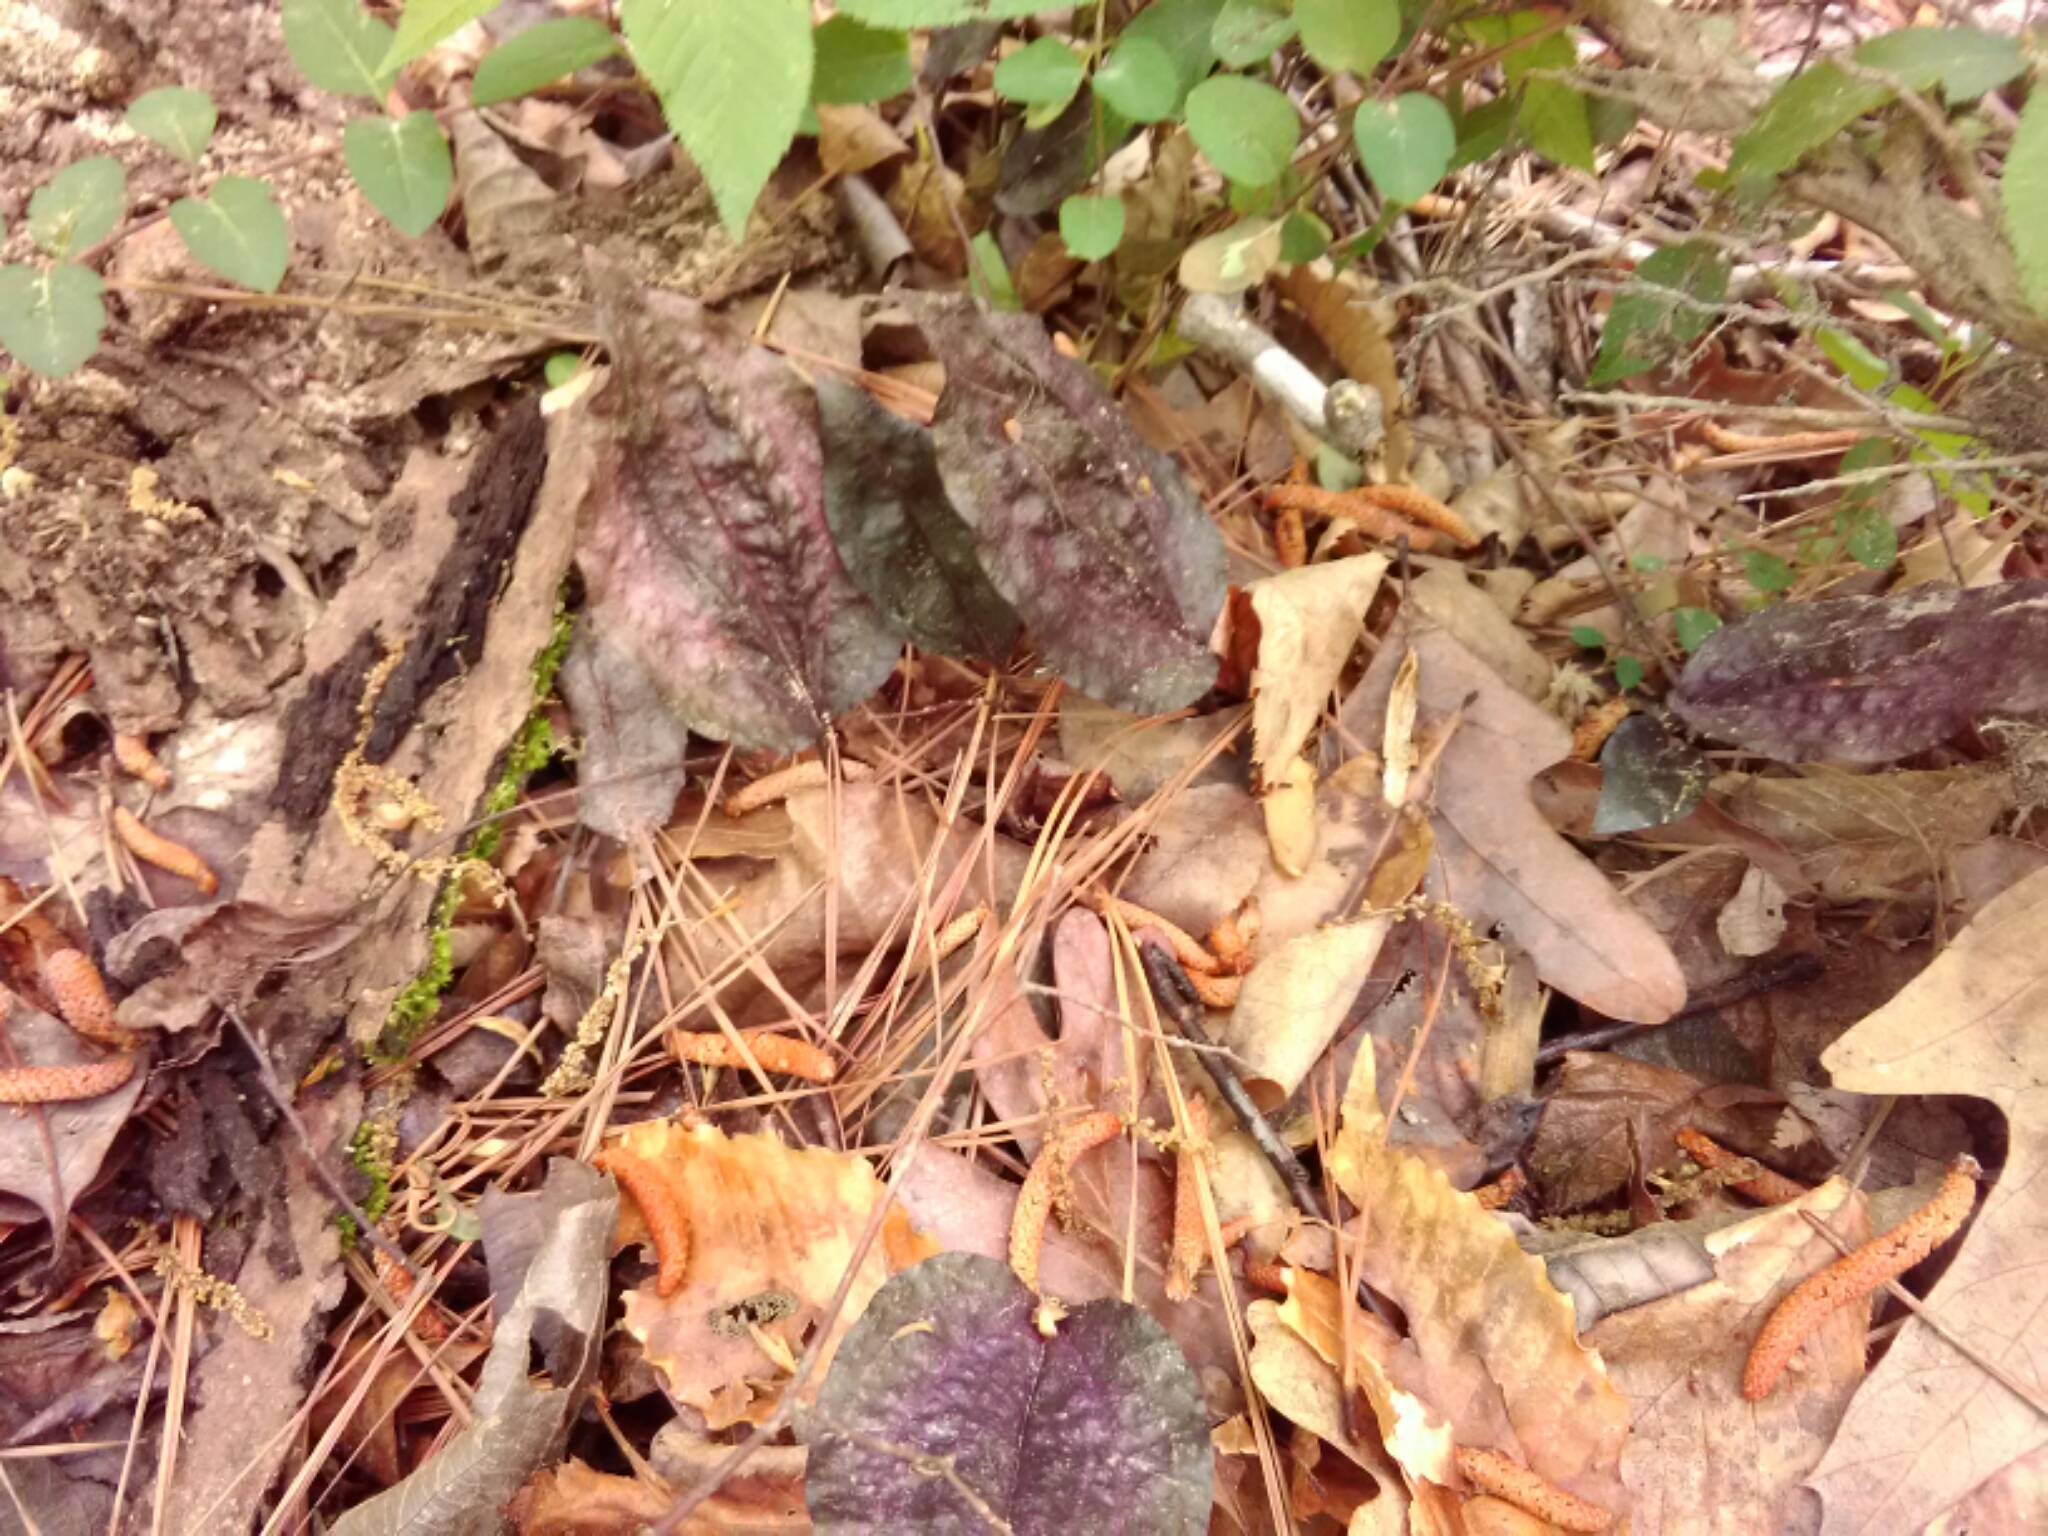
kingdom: Plantae
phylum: Tracheophyta
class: Liliopsida
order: Asparagales
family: Orchidaceae
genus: Tipularia
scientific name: Tipularia discolor
